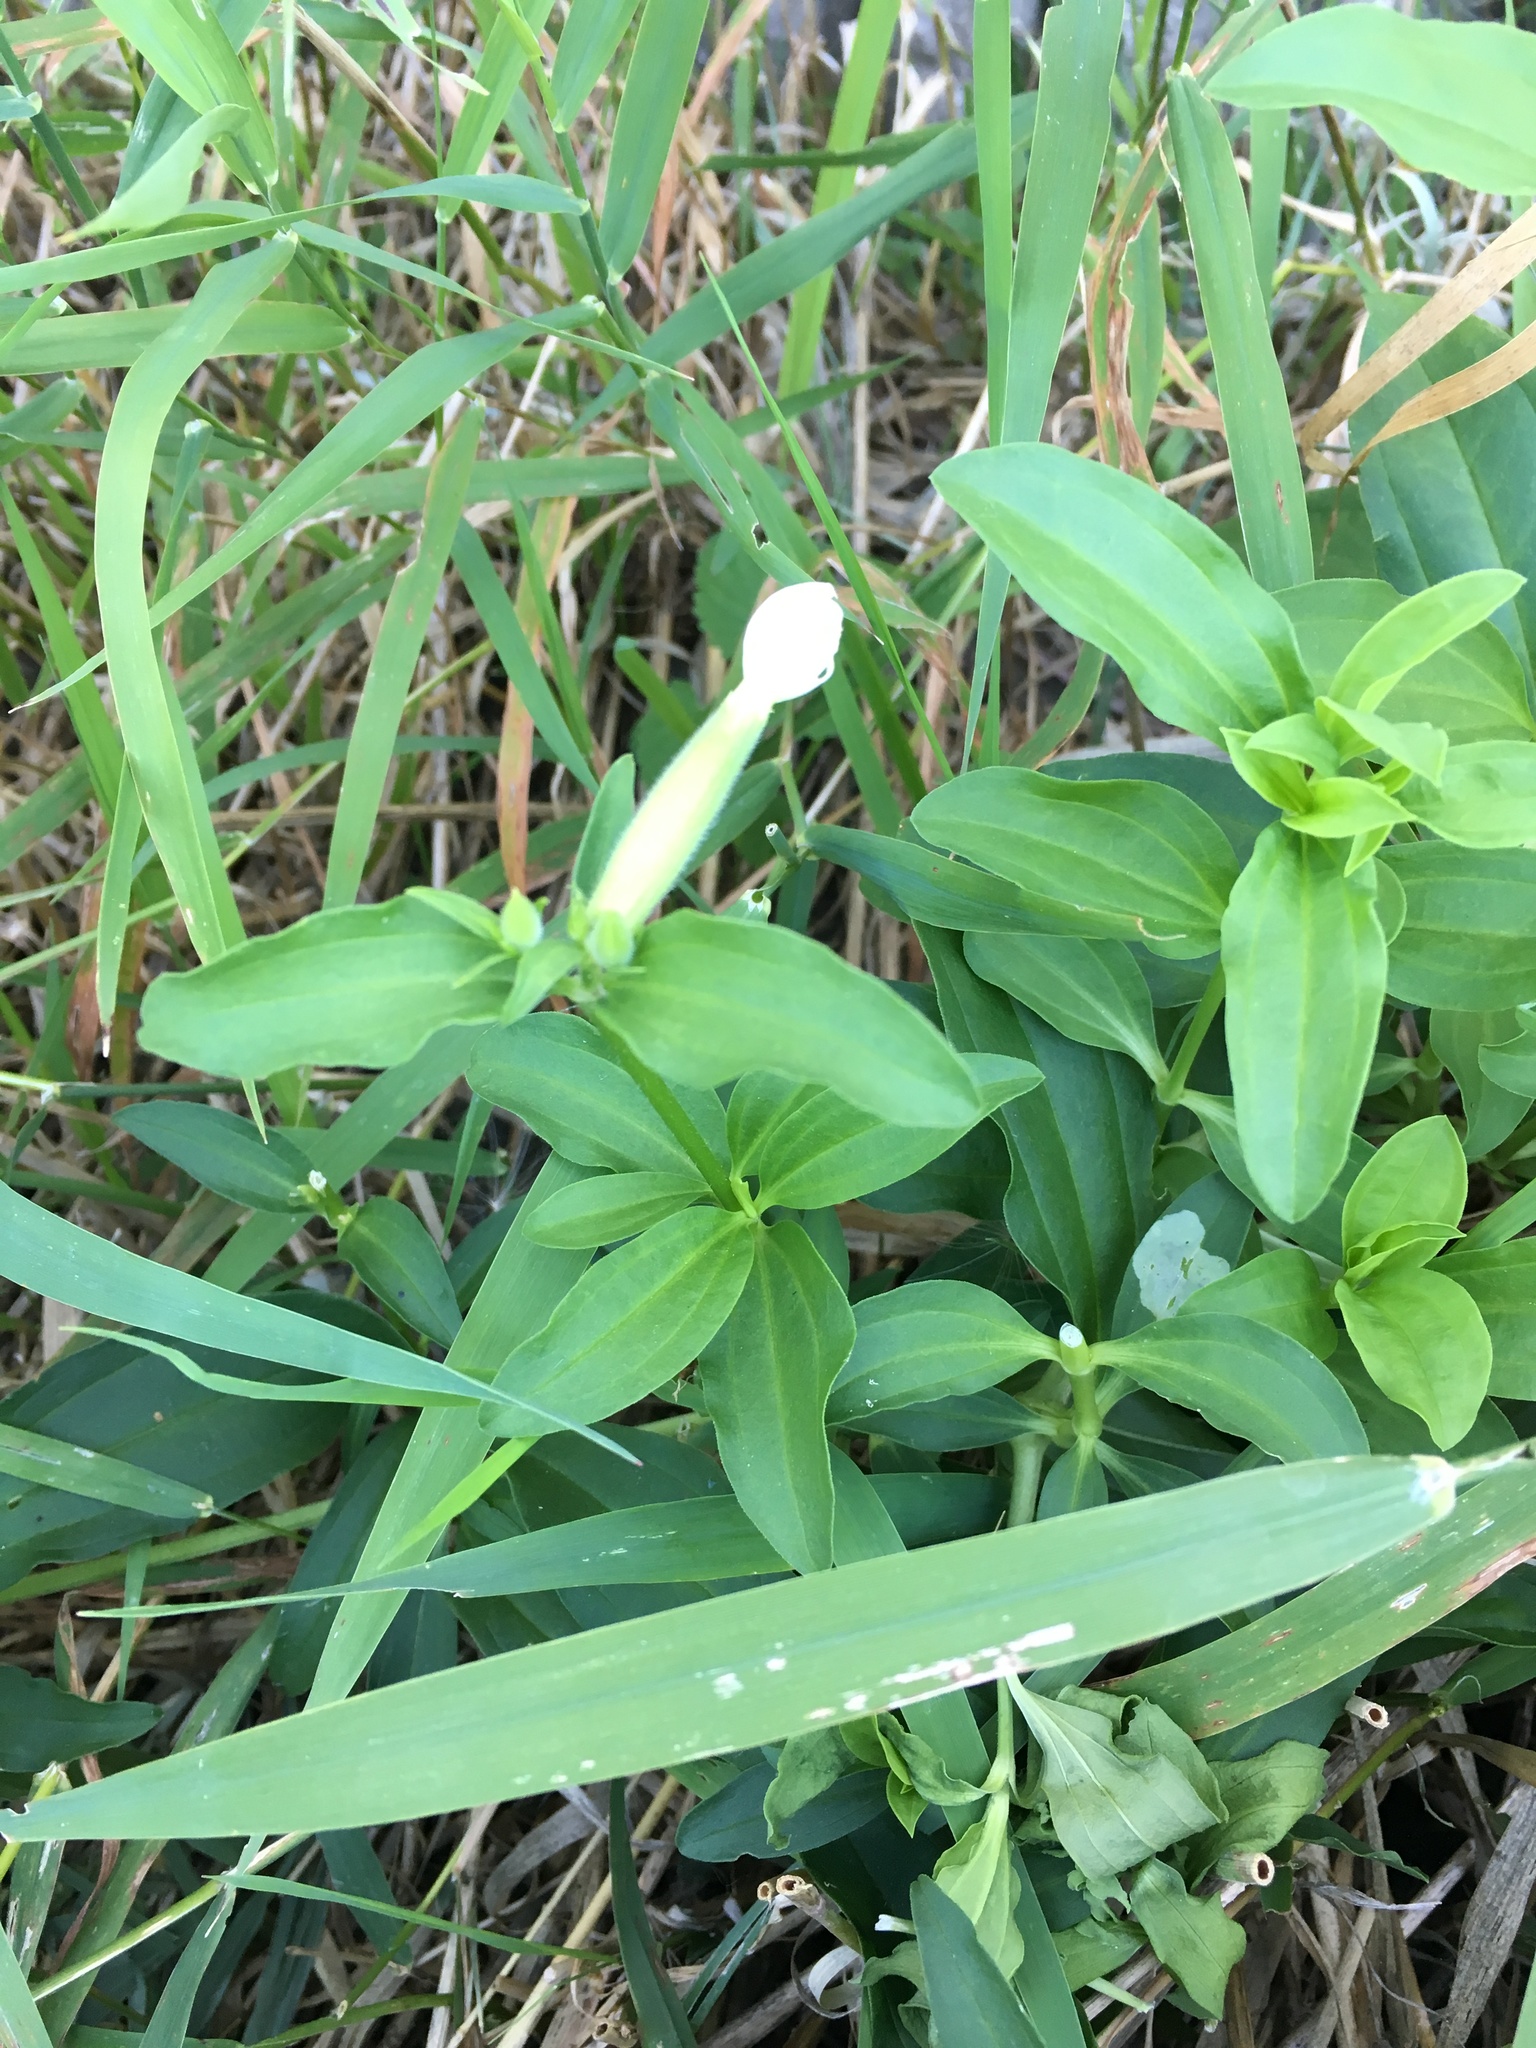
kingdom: Plantae
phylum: Tracheophyta
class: Magnoliopsida
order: Caryophyllales
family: Caryophyllaceae
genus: Saponaria
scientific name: Saponaria officinalis
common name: Soapwort
